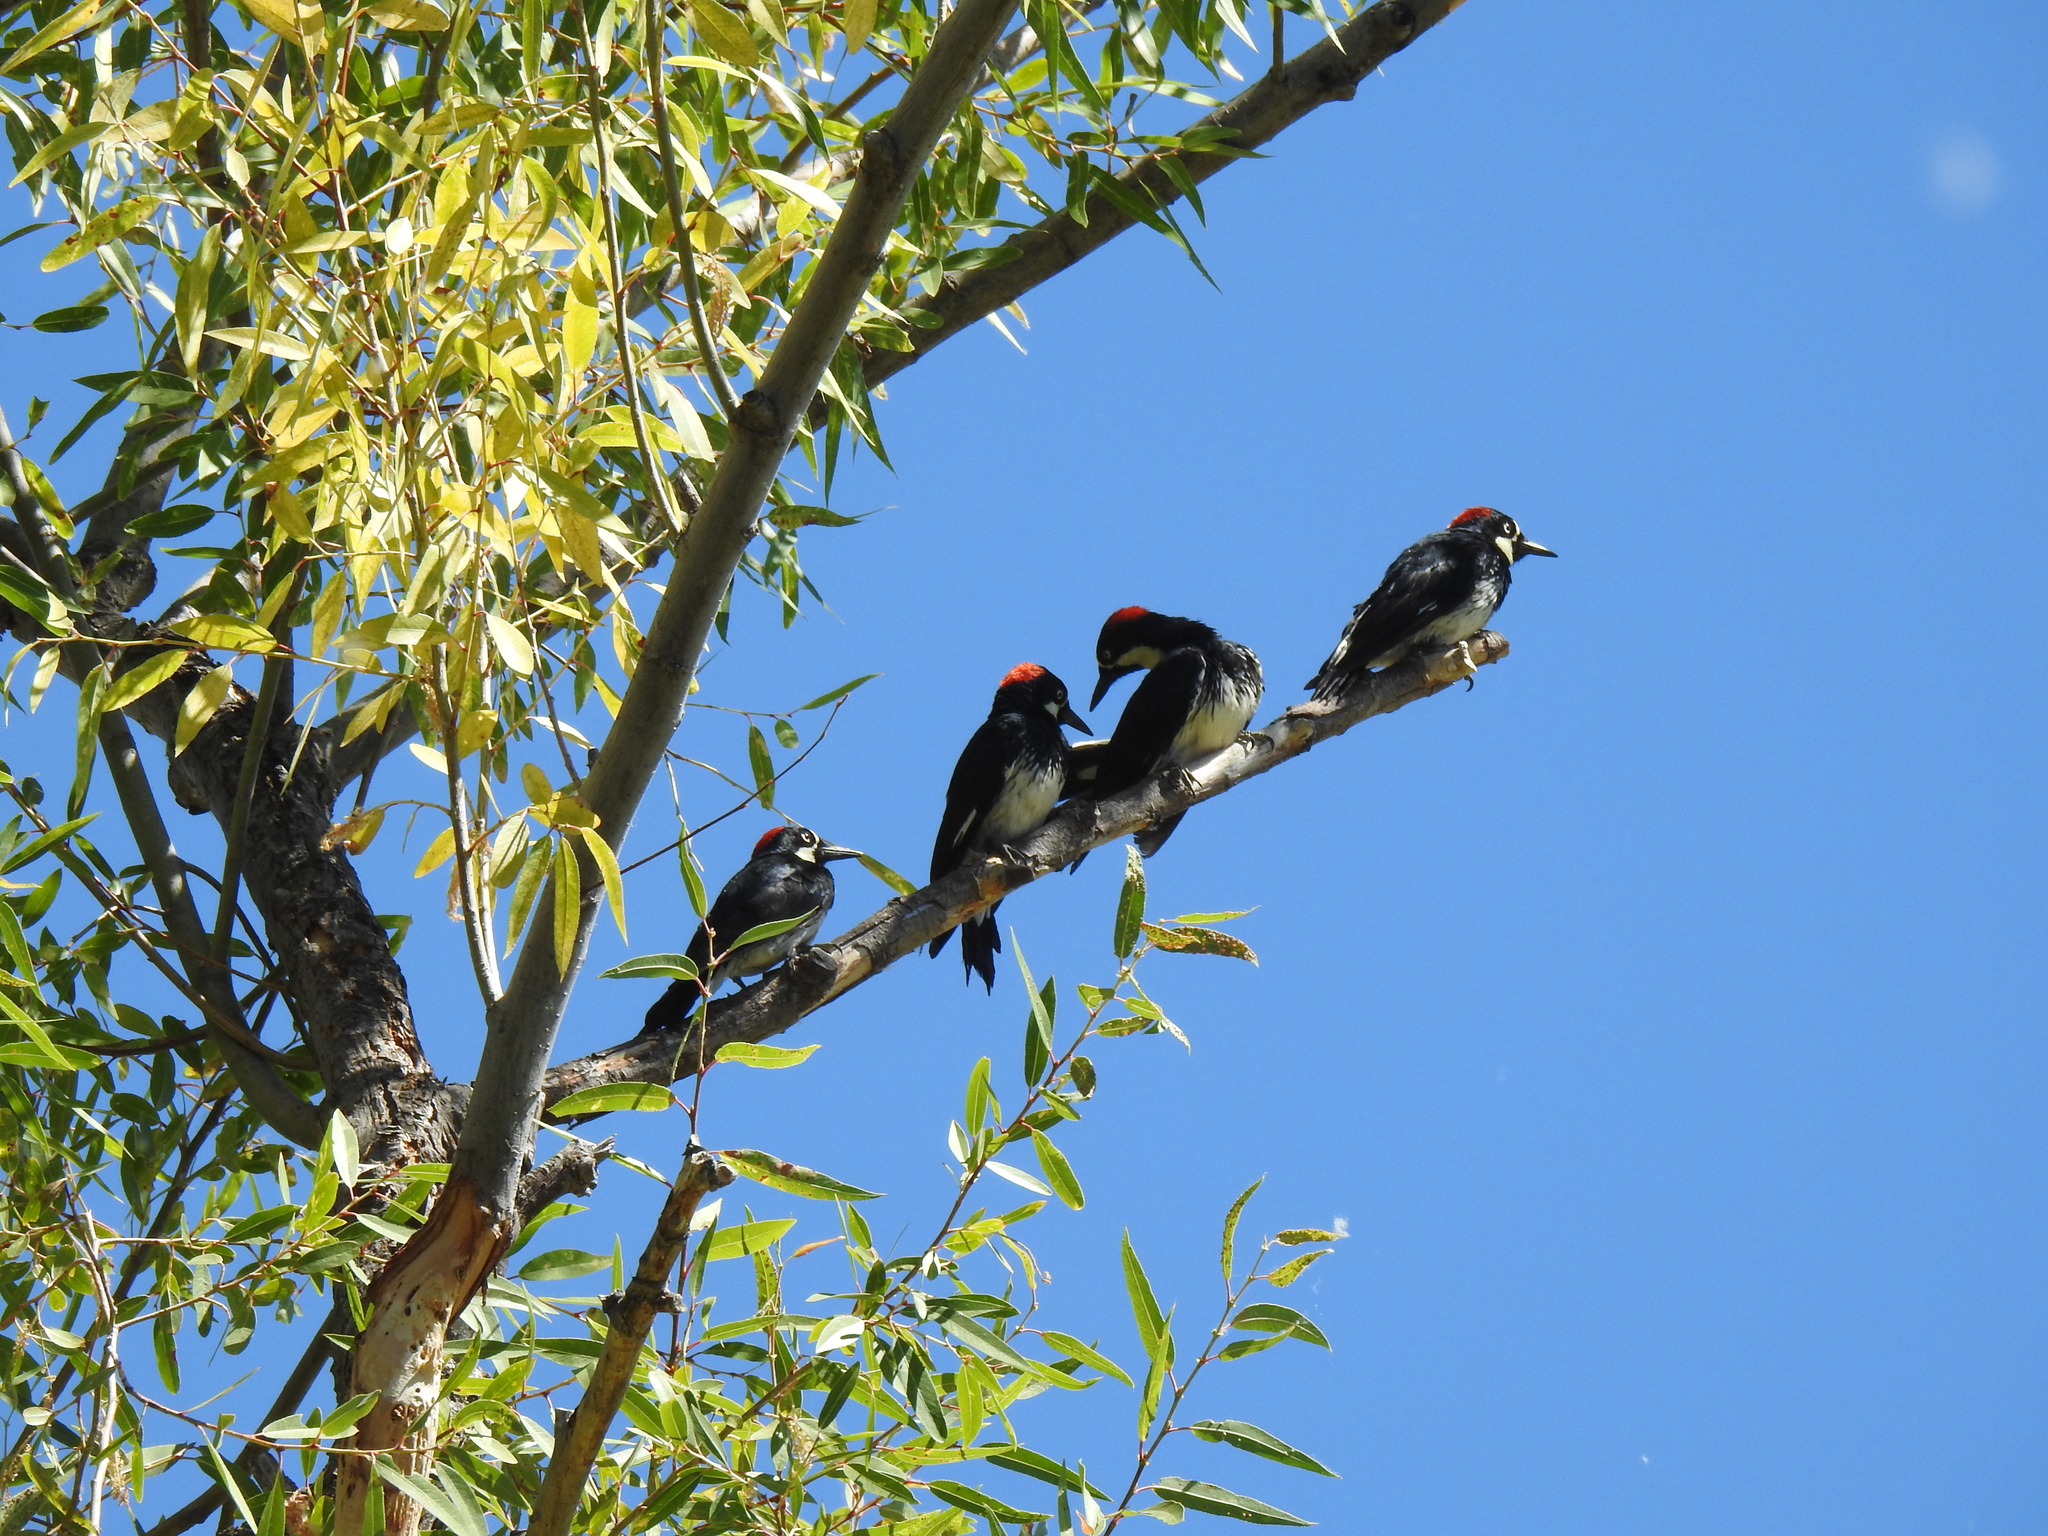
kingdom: Animalia
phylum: Chordata
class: Aves
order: Piciformes
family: Picidae
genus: Melanerpes
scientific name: Melanerpes formicivorus
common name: Acorn woodpecker
